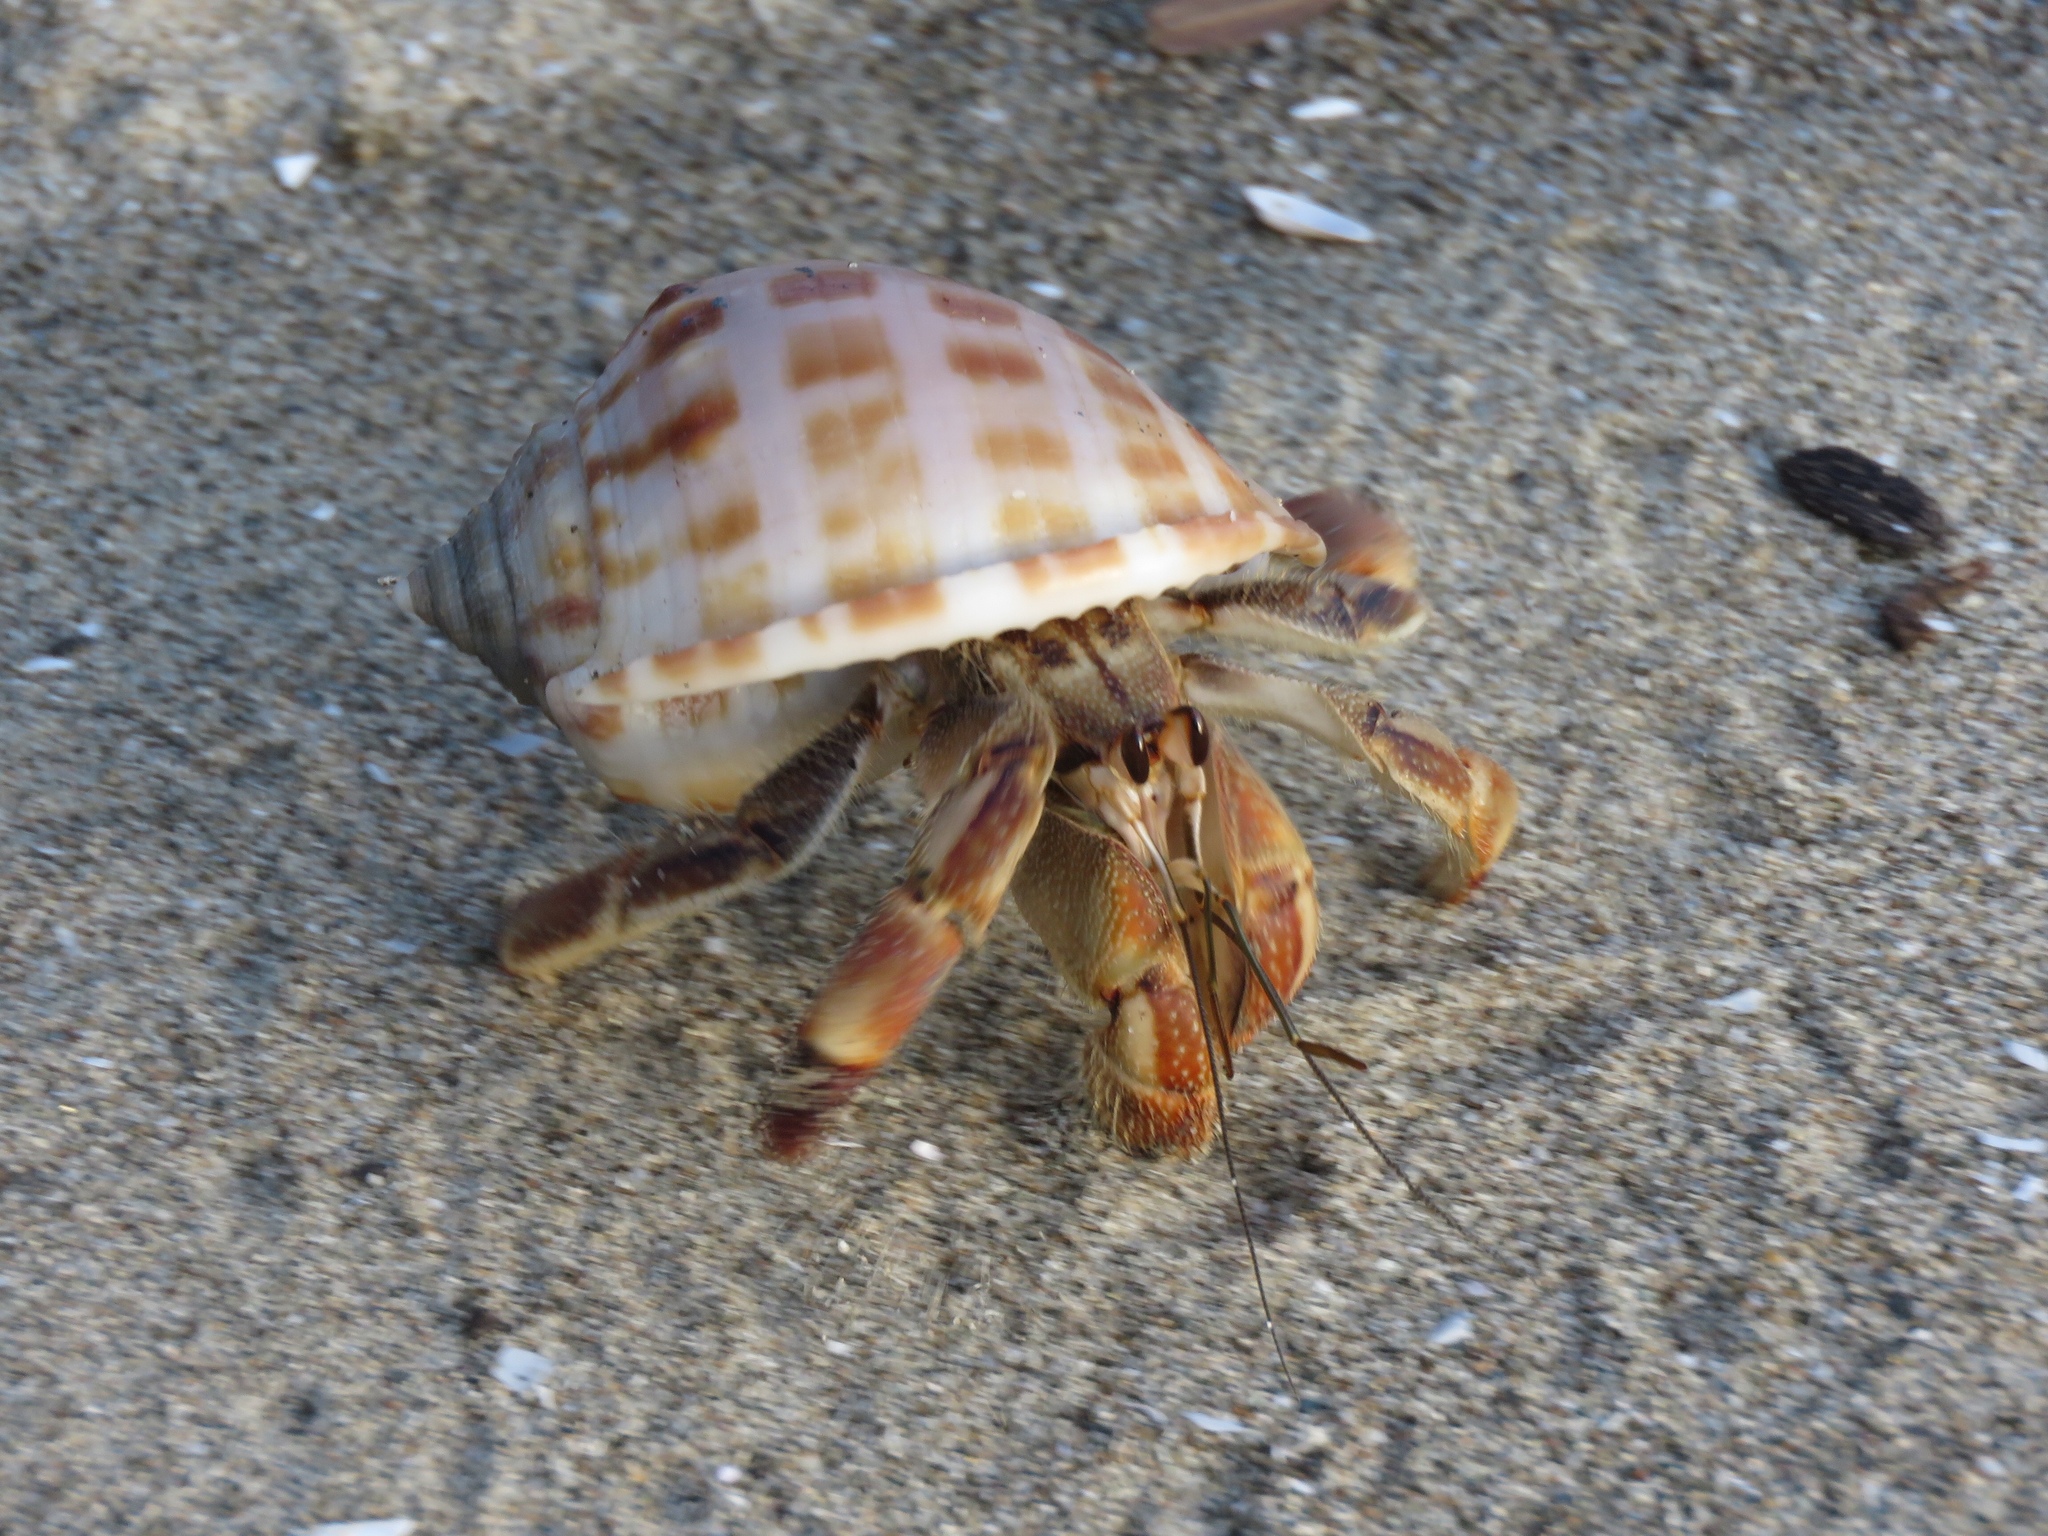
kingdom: Animalia
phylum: Arthropoda
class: Malacostraca
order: Decapoda
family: Coenobitidae
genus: Coenobita
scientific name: Coenobita compressus
